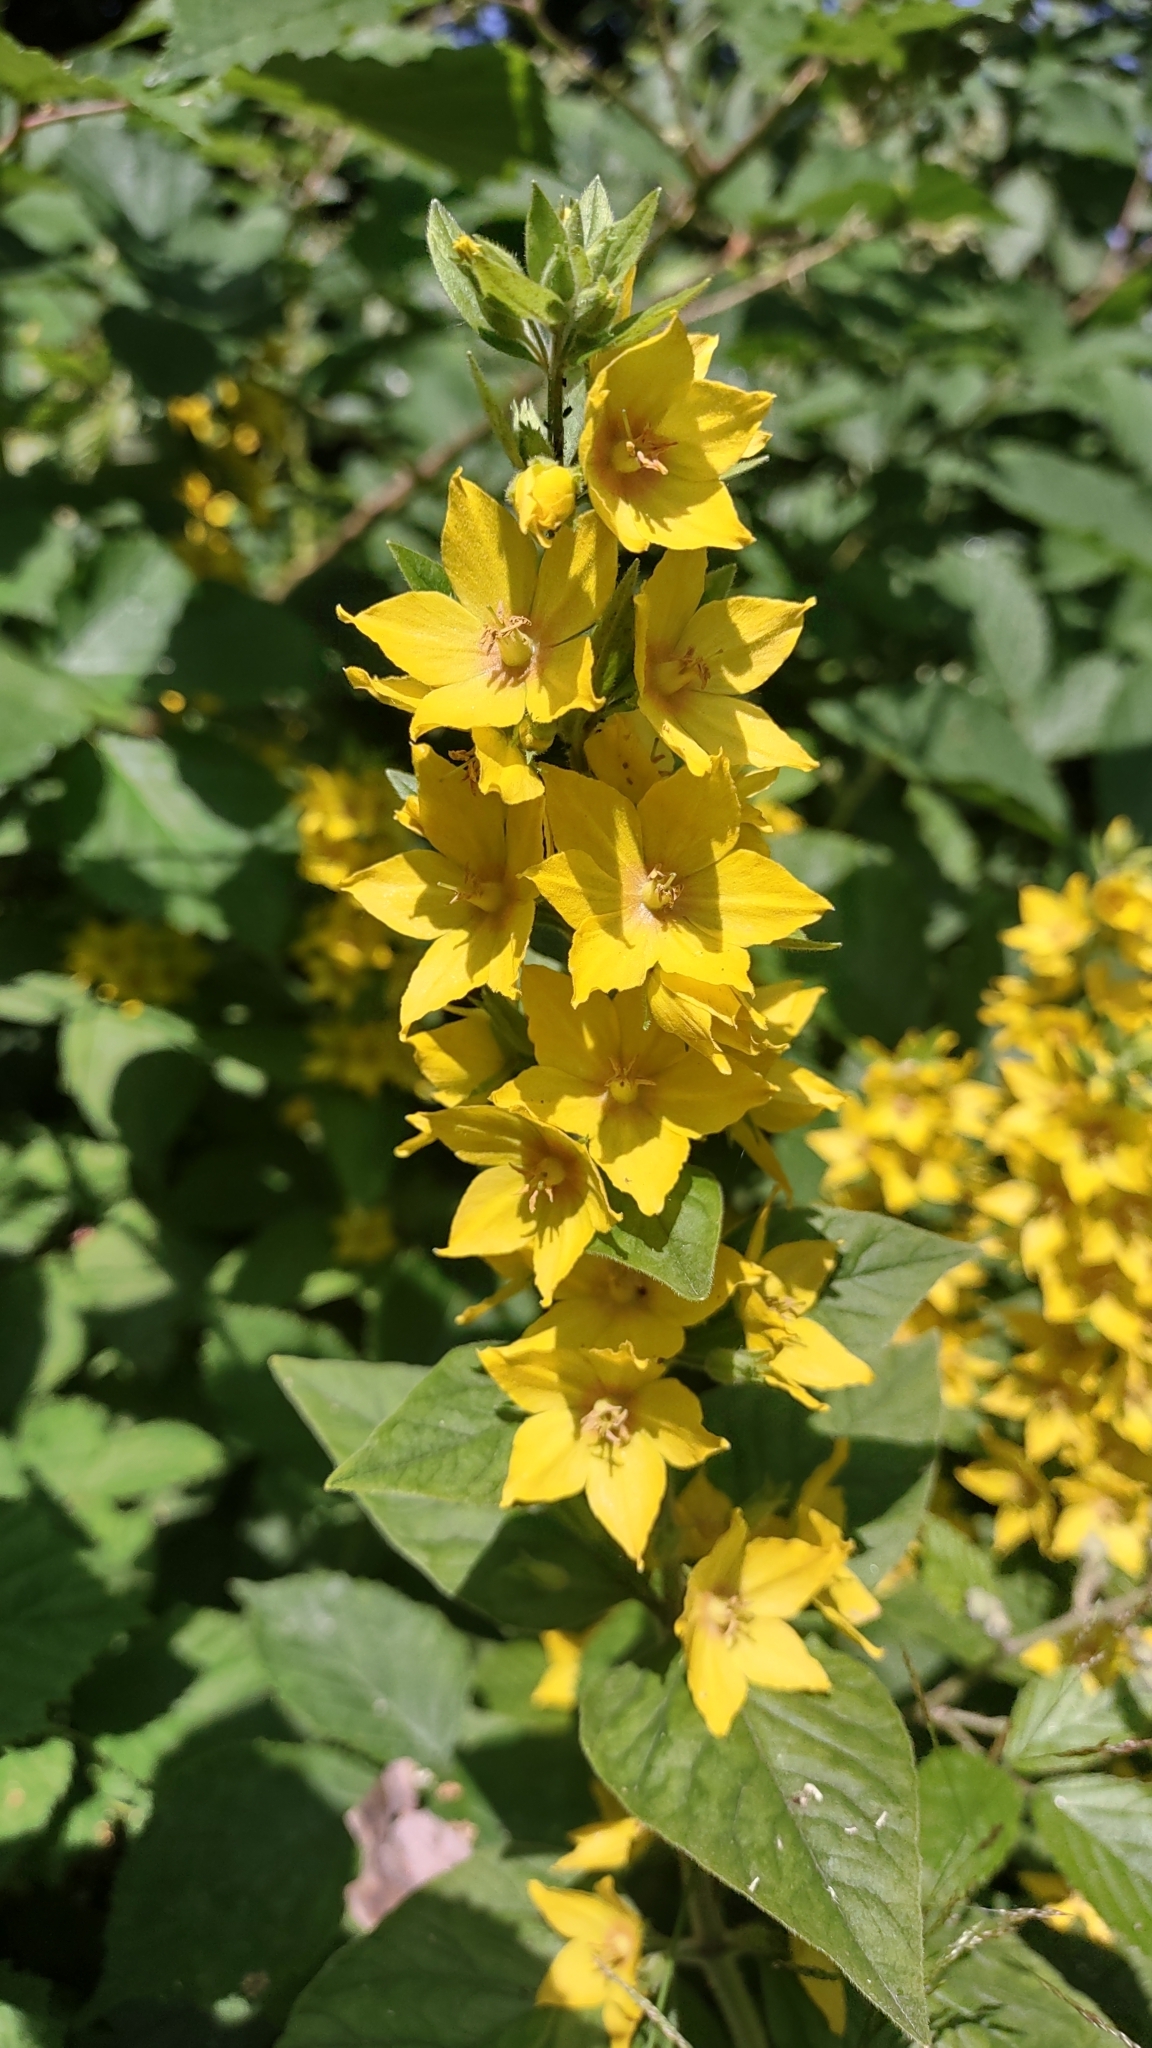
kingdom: Plantae
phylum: Tracheophyta
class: Magnoliopsida
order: Ericales
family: Primulaceae
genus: Lysimachia
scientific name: Lysimachia punctata
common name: Dotted loosestrife
